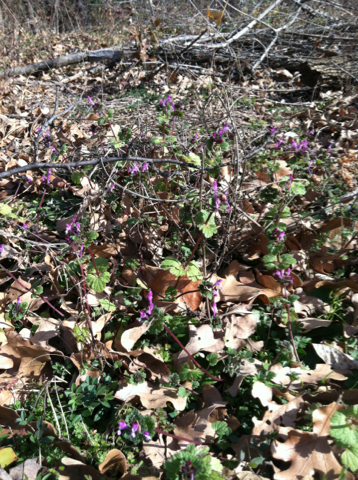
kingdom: Plantae
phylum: Tracheophyta
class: Magnoliopsida
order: Lamiales
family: Lamiaceae
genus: Lamium
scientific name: Lamium amplexicaule
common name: Henbit dead-nettle
